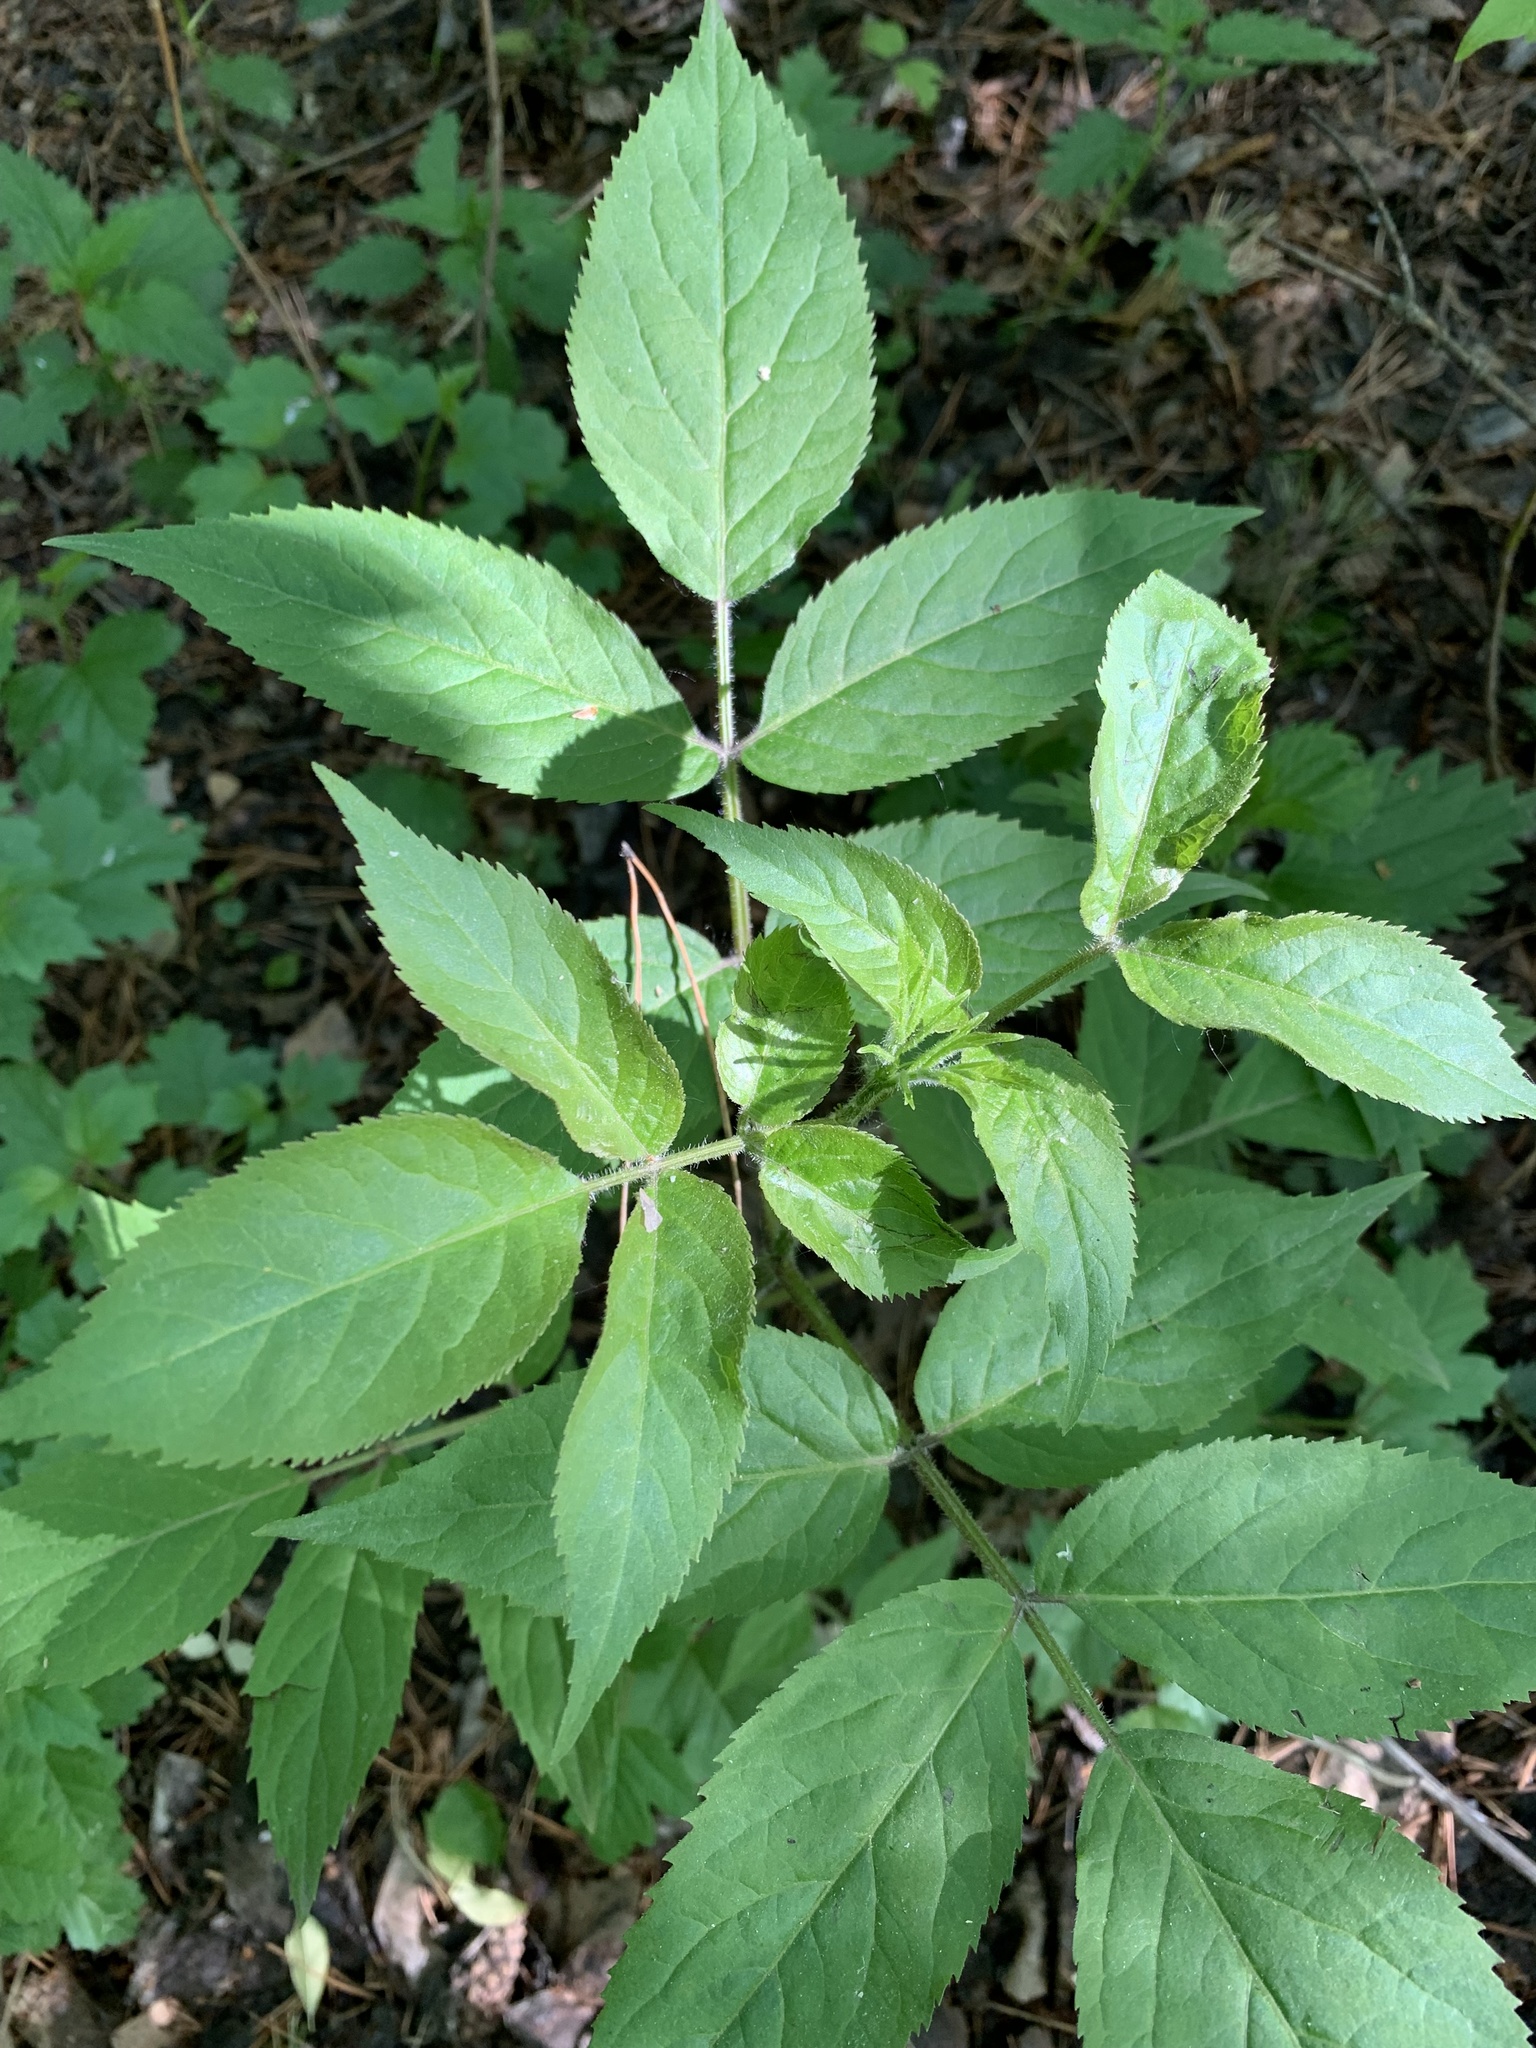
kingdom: Plantae
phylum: Tracheophyta
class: Magnoliopsida
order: Dipsacales
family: Viburnaceae
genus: Sambucus
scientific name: Sambucus sibirica
